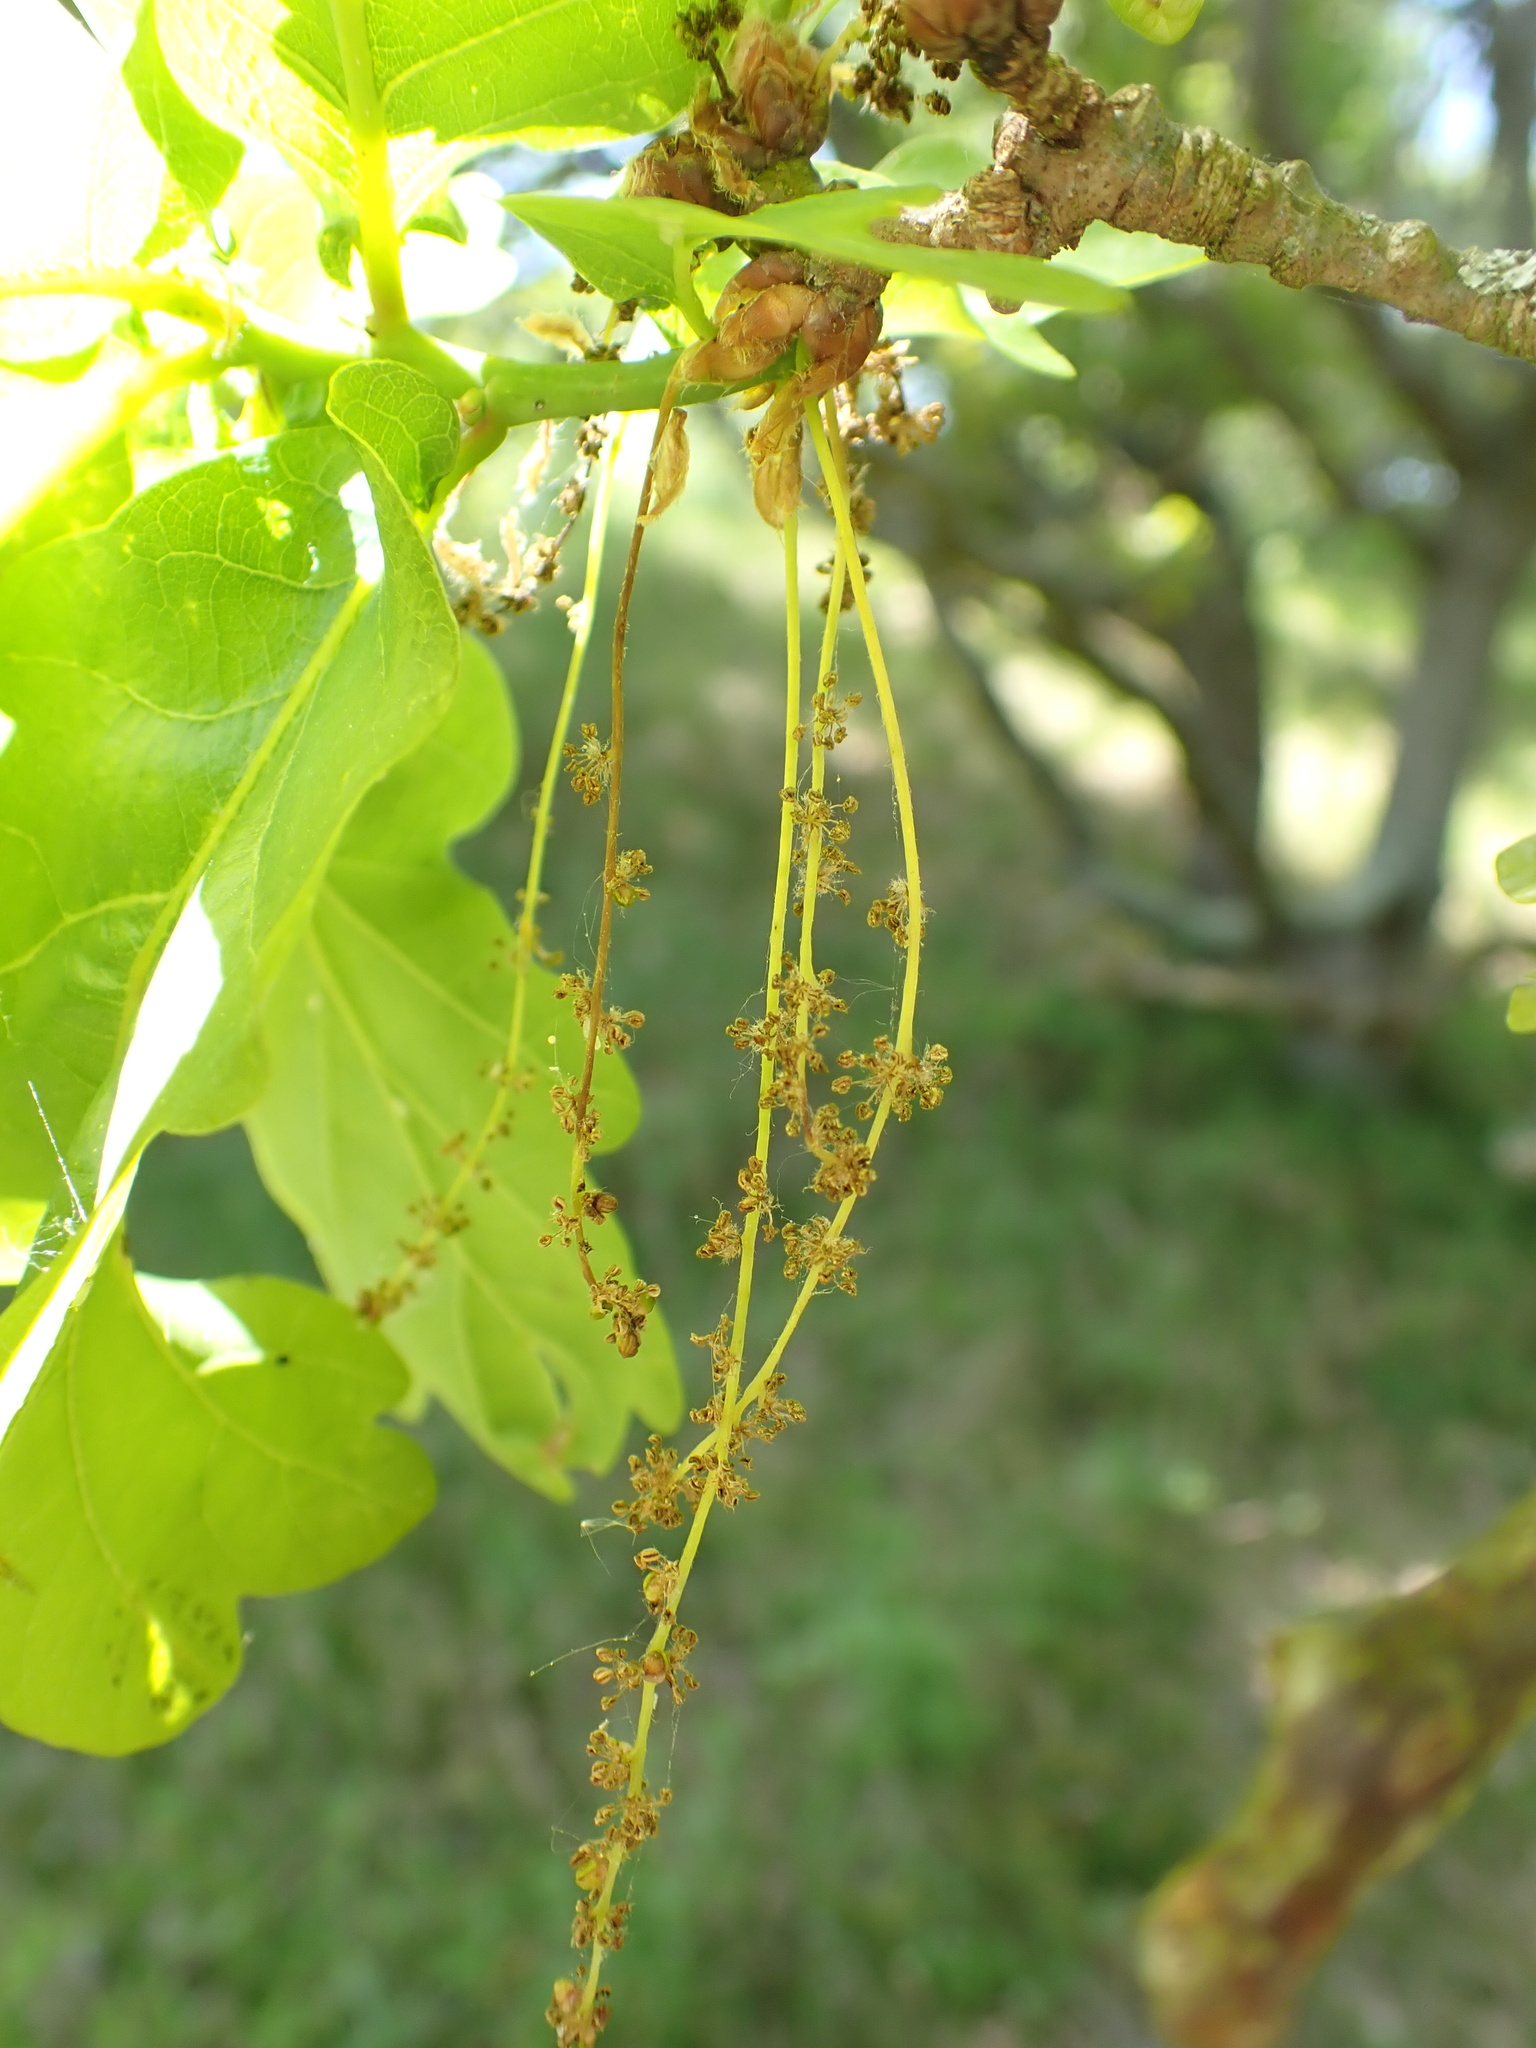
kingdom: Plantae
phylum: Tracheophyta
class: Magnoliopsida
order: Fagales
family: Fagaceae
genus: Quercus
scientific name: Quercus robur
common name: Pedunculate oak
